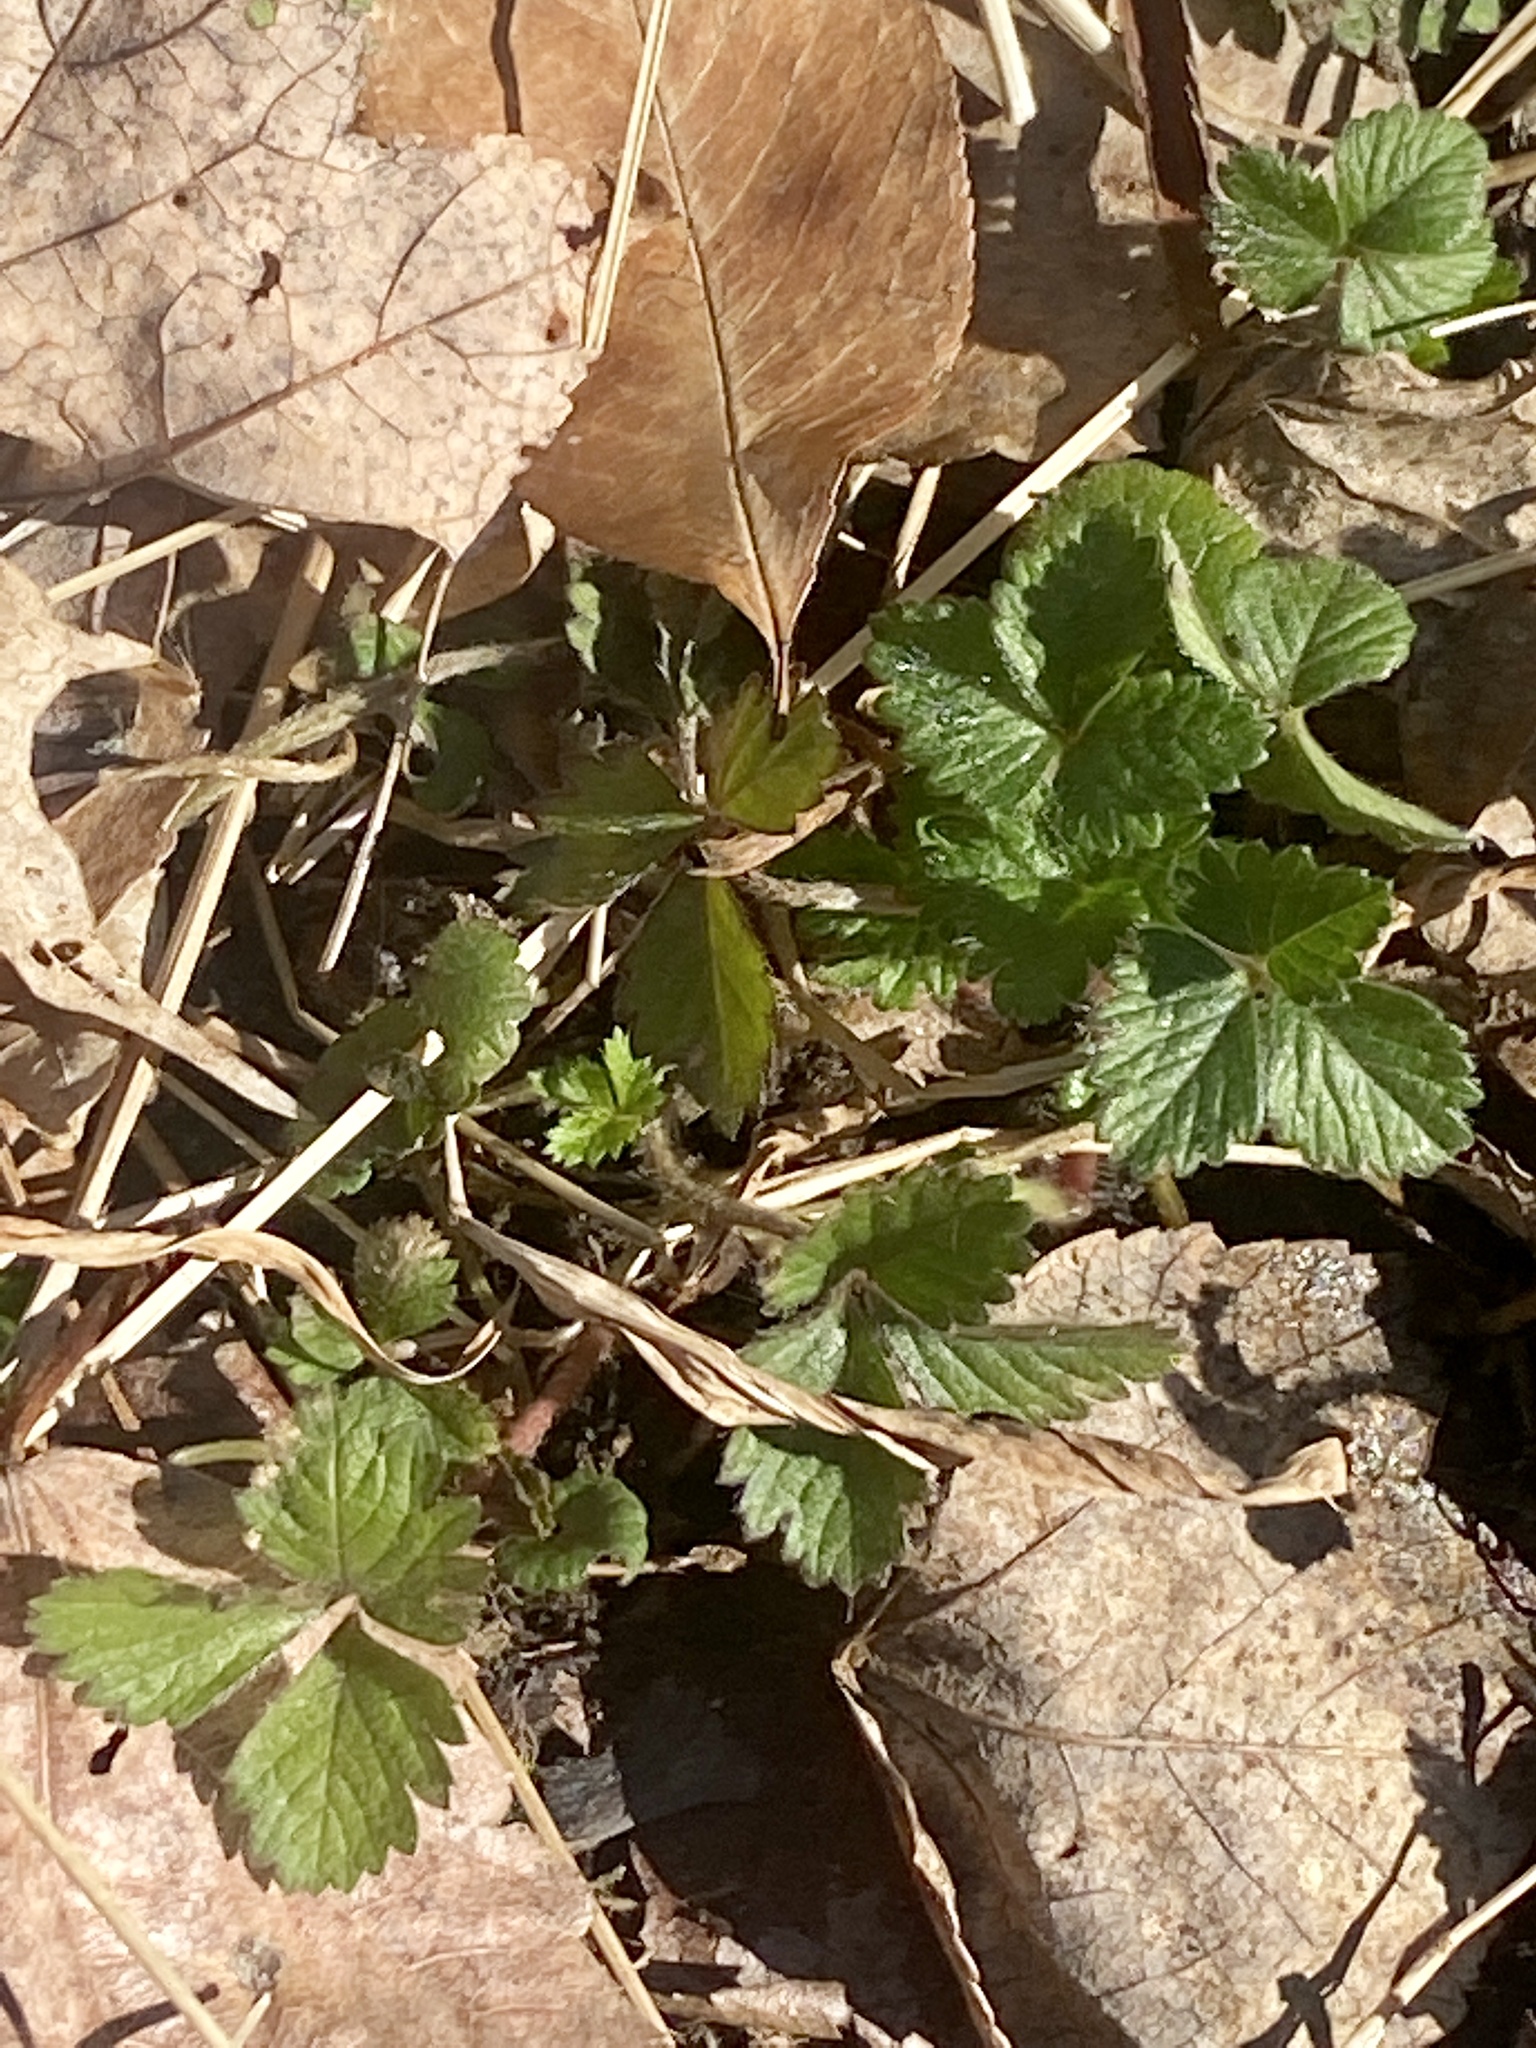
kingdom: Plantae
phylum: Tracheophyta
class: Magnoliopsida
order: Rosales
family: Rosaceae
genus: Potentilla
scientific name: Potentilla indica
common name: Yellow-flowered strawberry
